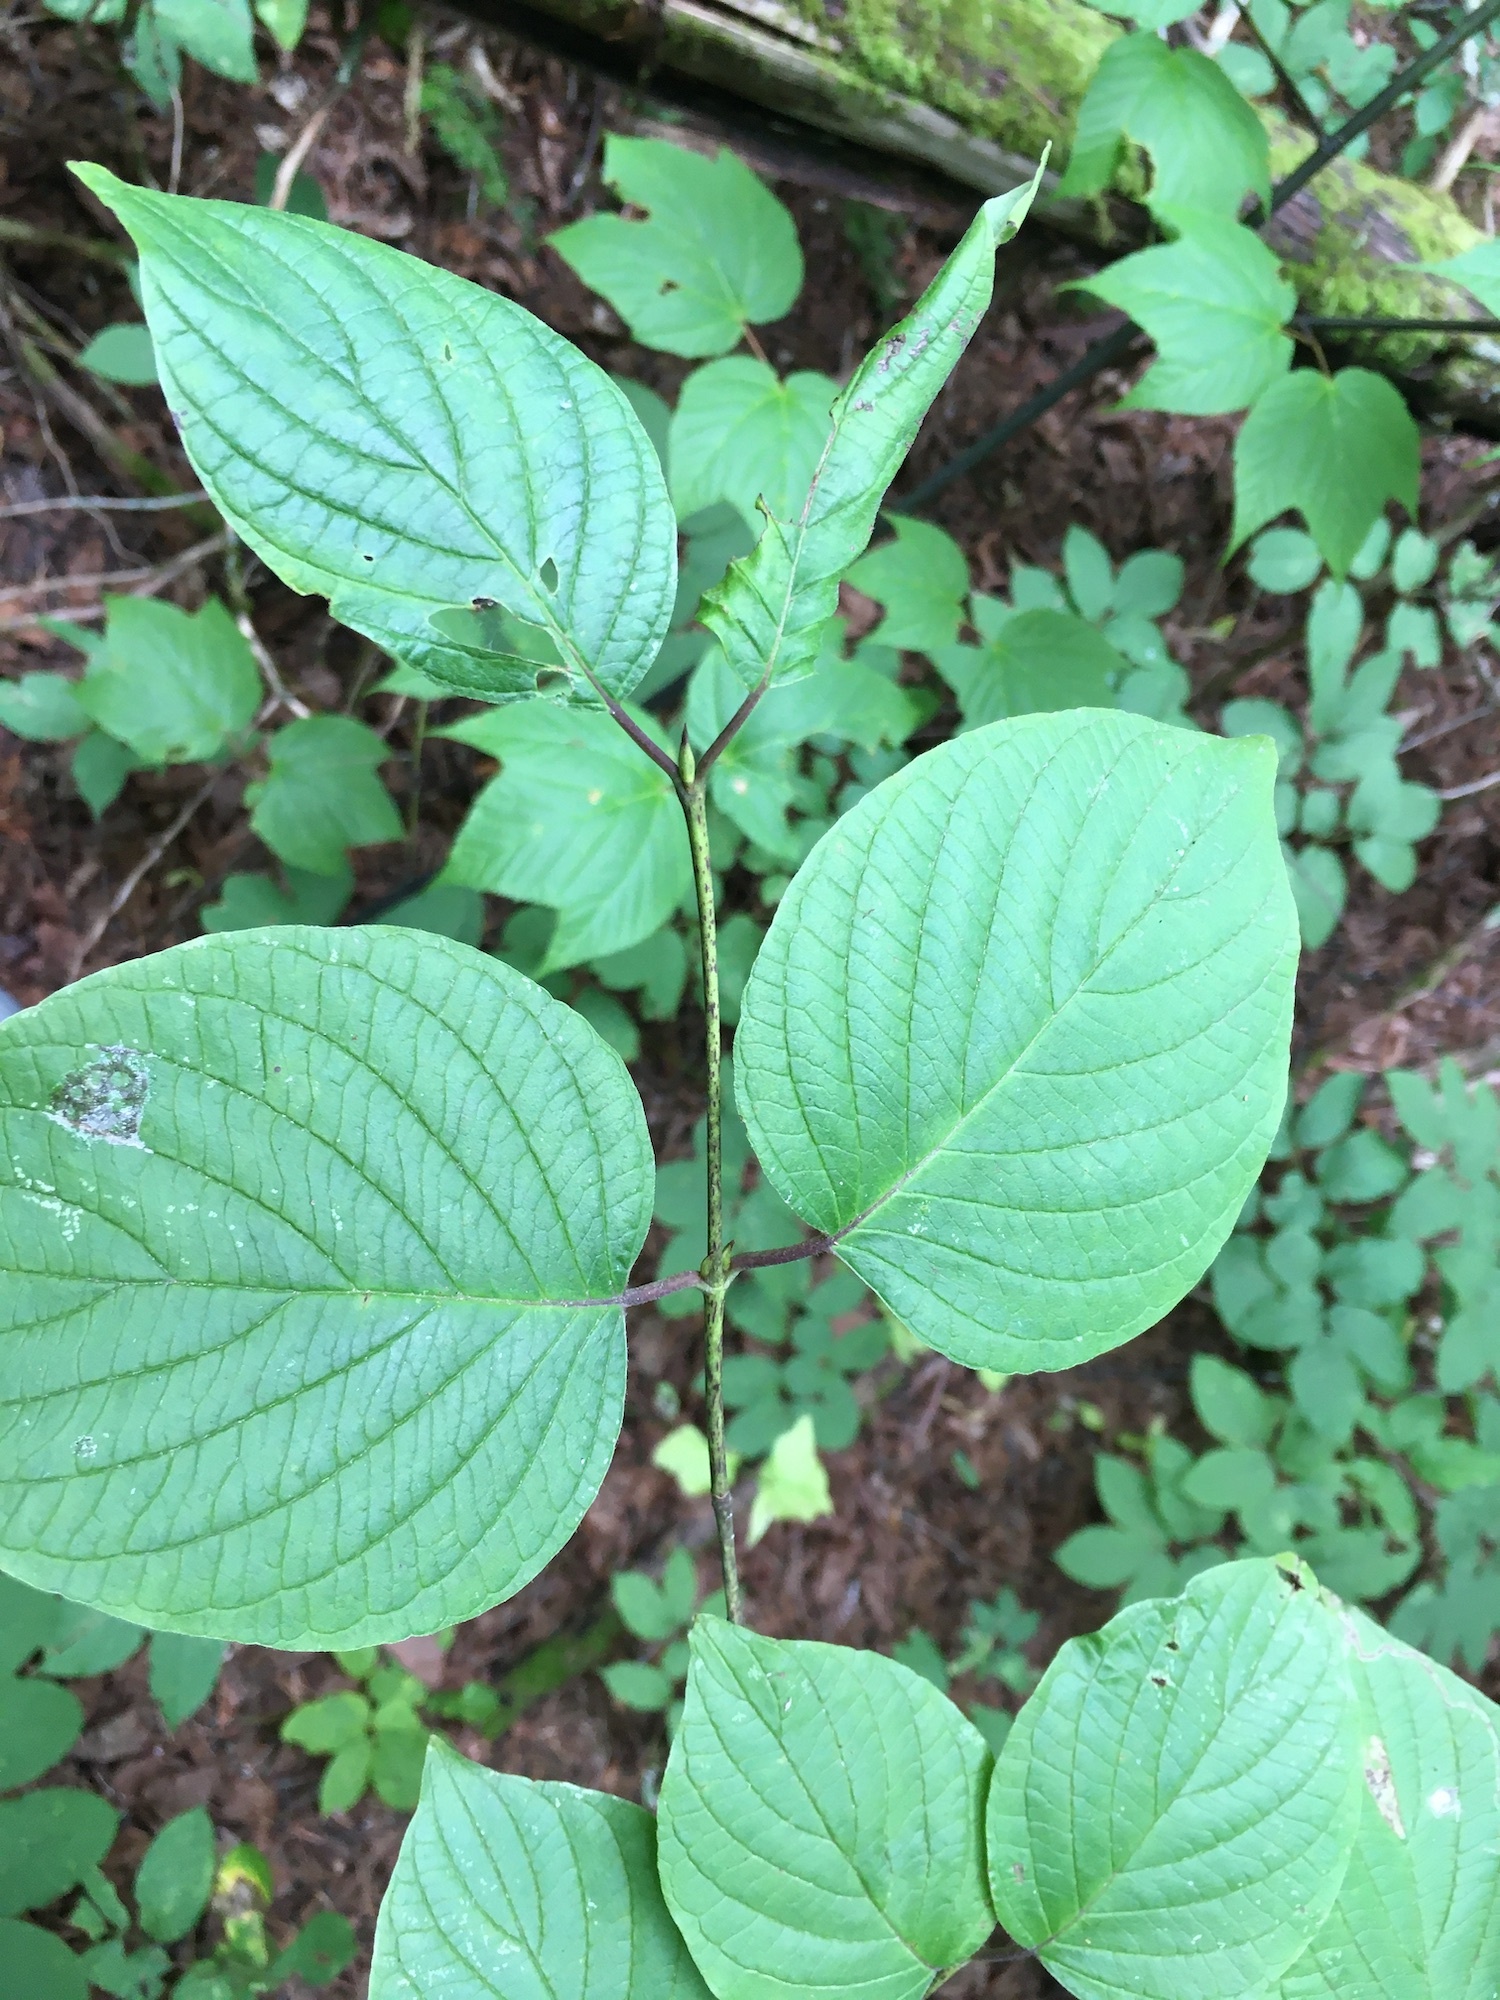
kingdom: Plantae
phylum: Tracheophyta
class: Magnoliopsida
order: Cornales
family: Cornaceae
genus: Cornus
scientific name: Cornus rugosa
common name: Round-leaf dogwood
